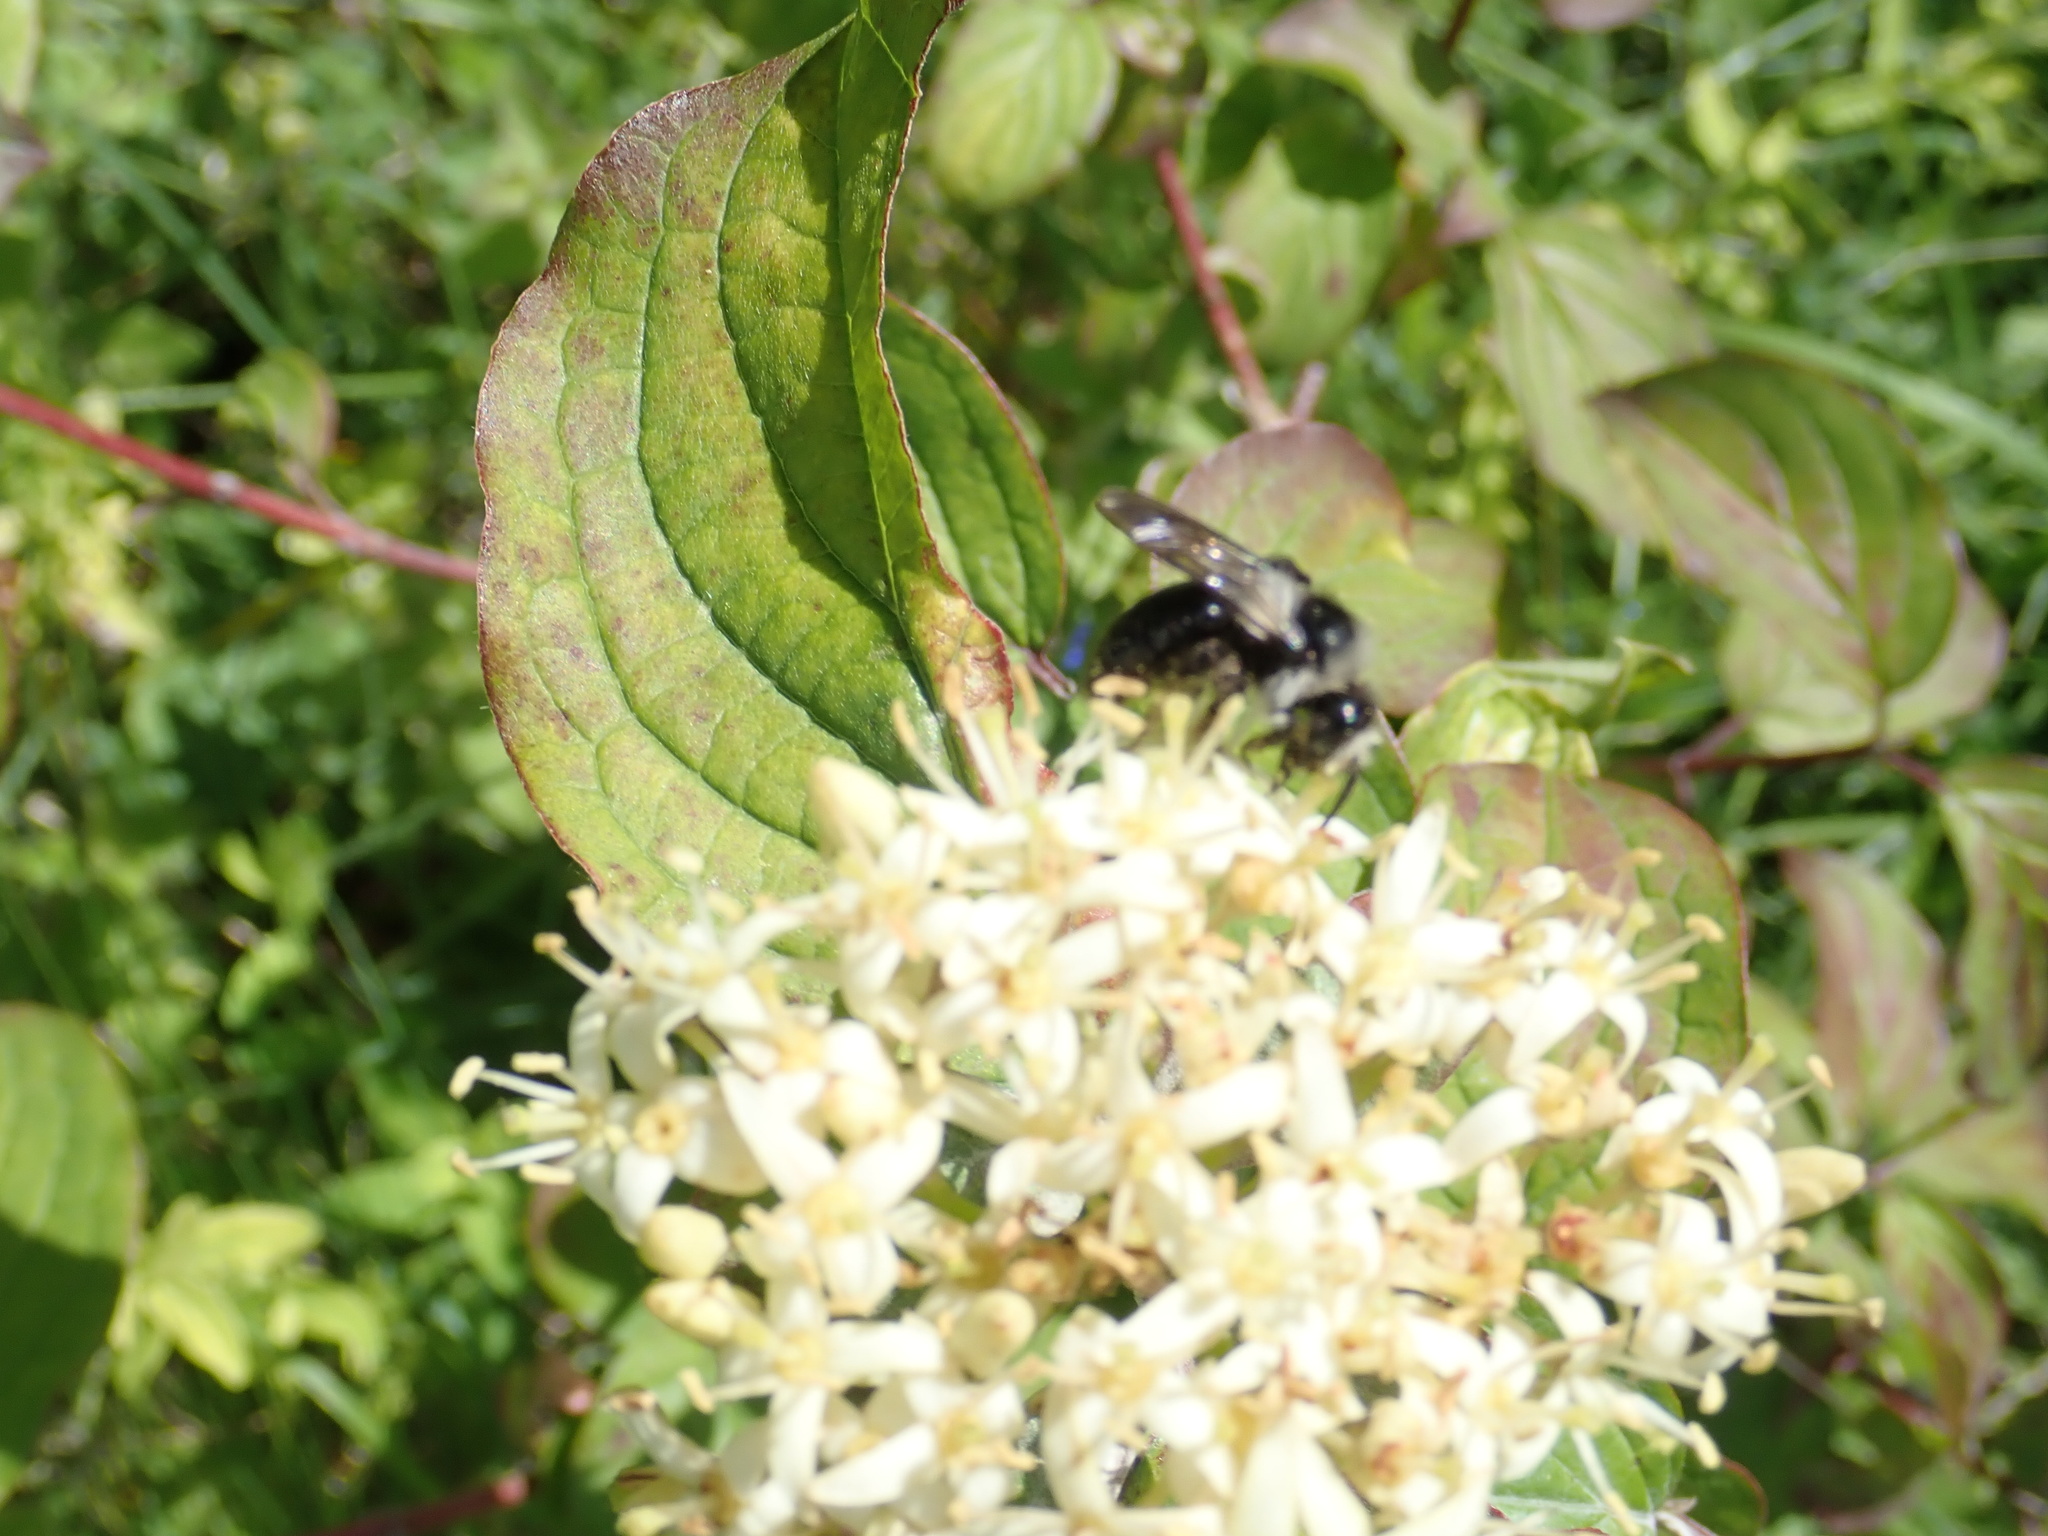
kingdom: Animalia
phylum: Arthropoda
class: Insecta
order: Hymenoptera
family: Andrenidae
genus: Andrena
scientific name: Andrena cineraria
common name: Ashy mining bee
